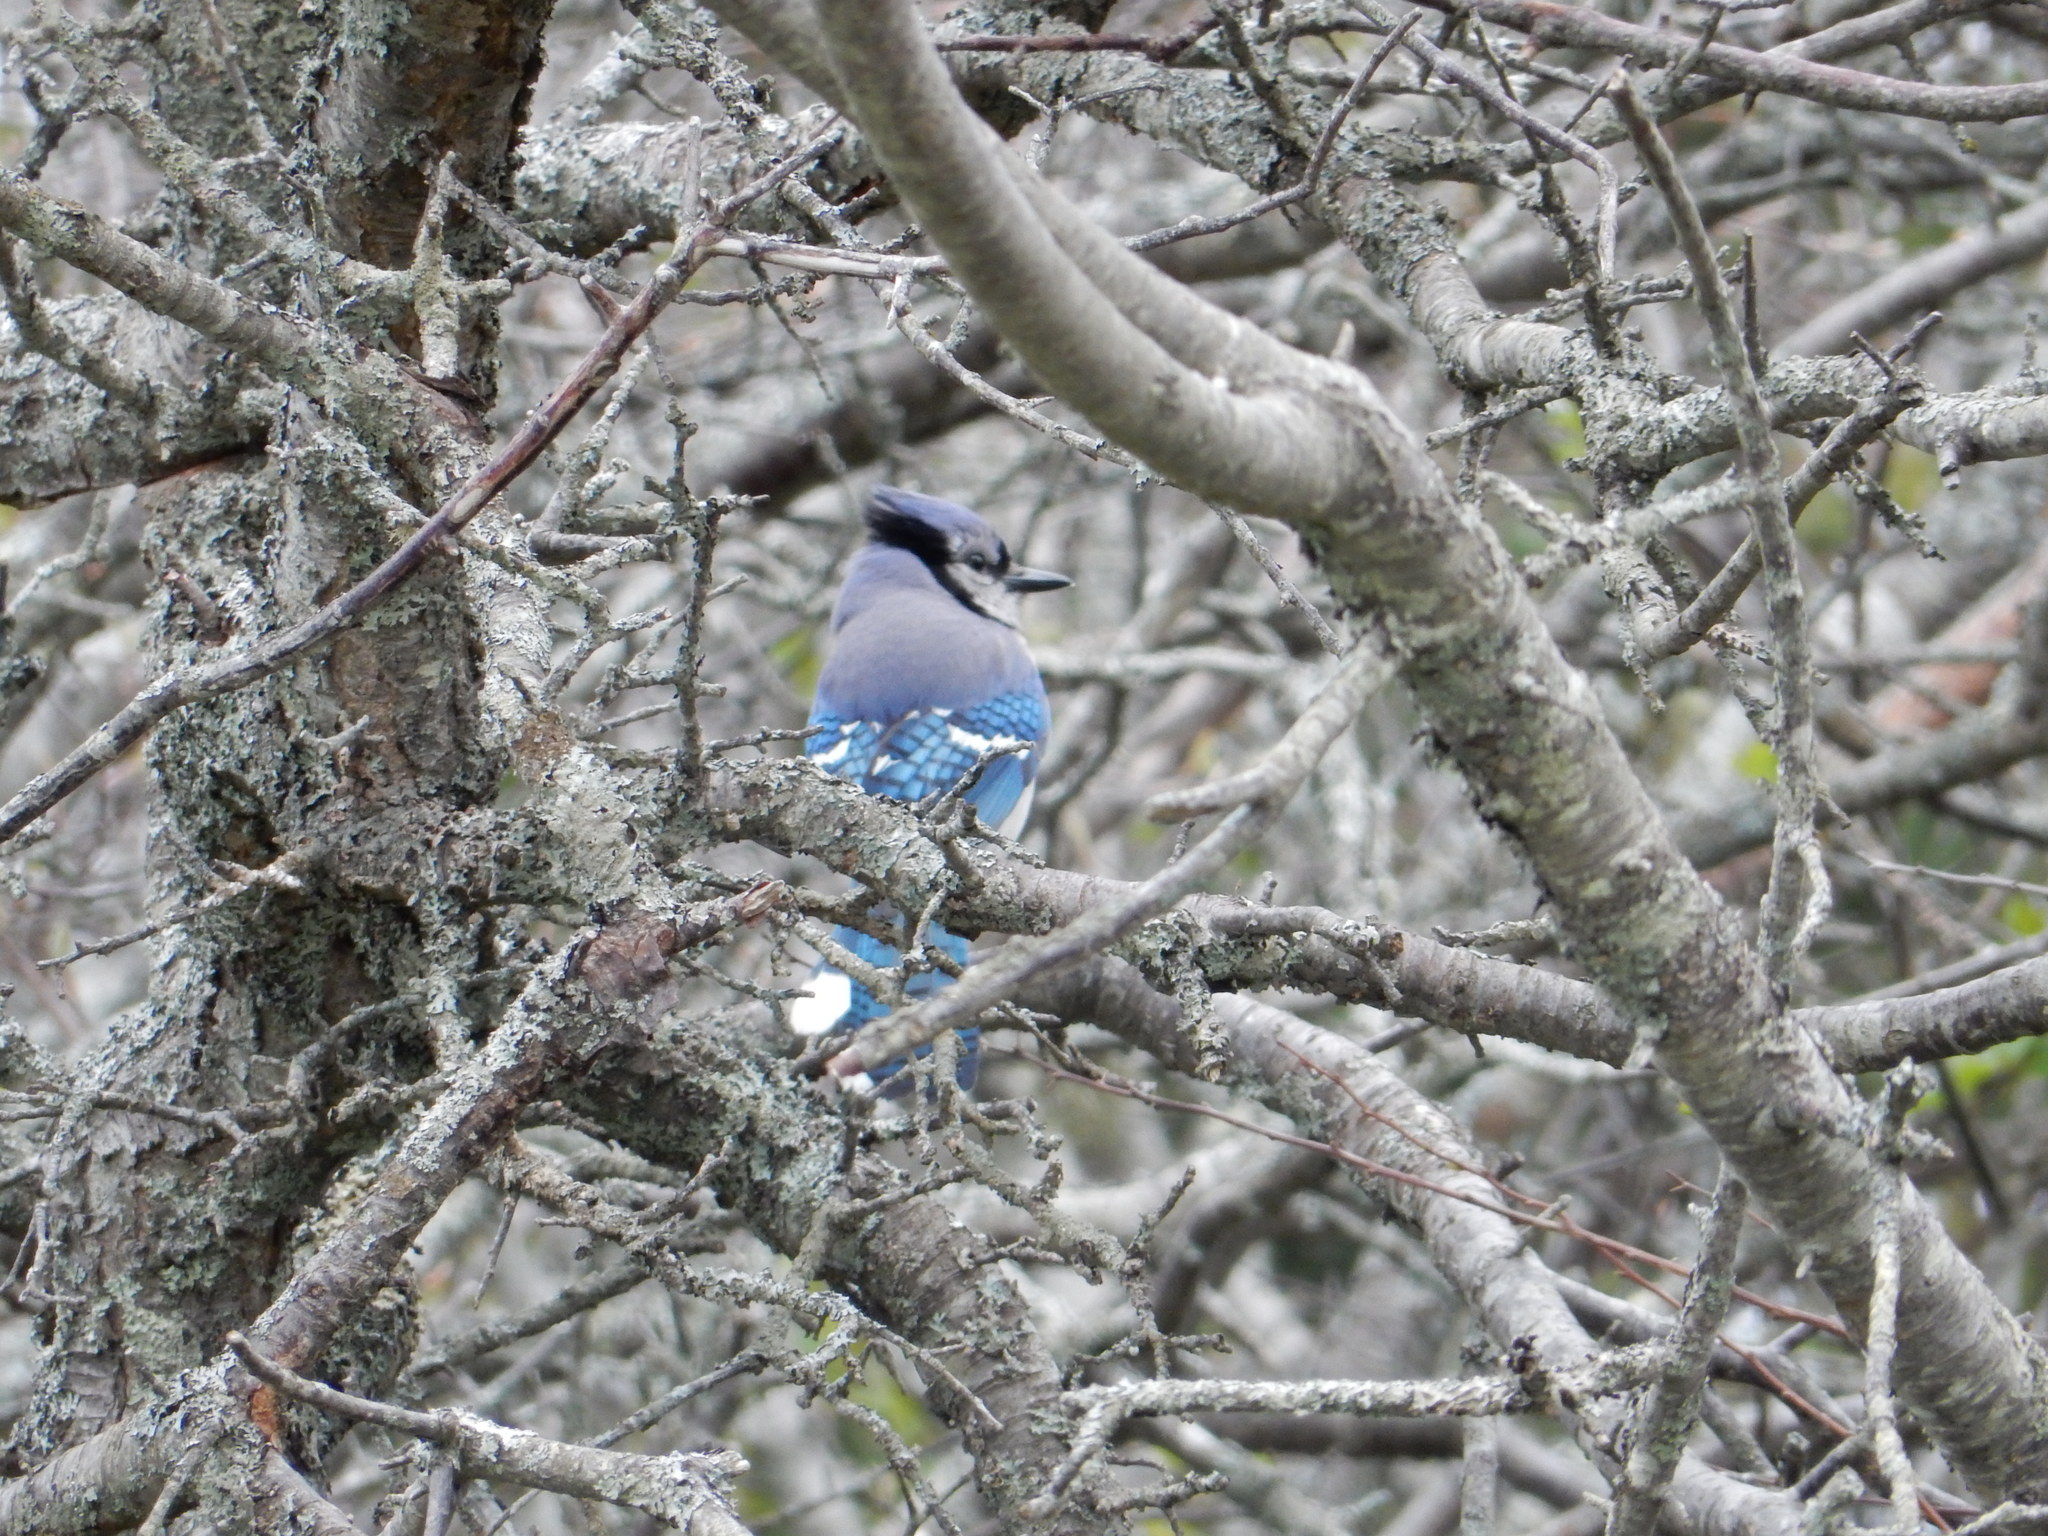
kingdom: Animalia
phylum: Chordata
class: Aves
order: Passeriformes
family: Corvidae
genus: Cyanocitta
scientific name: Cyanocitta cristata
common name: Blue jay
